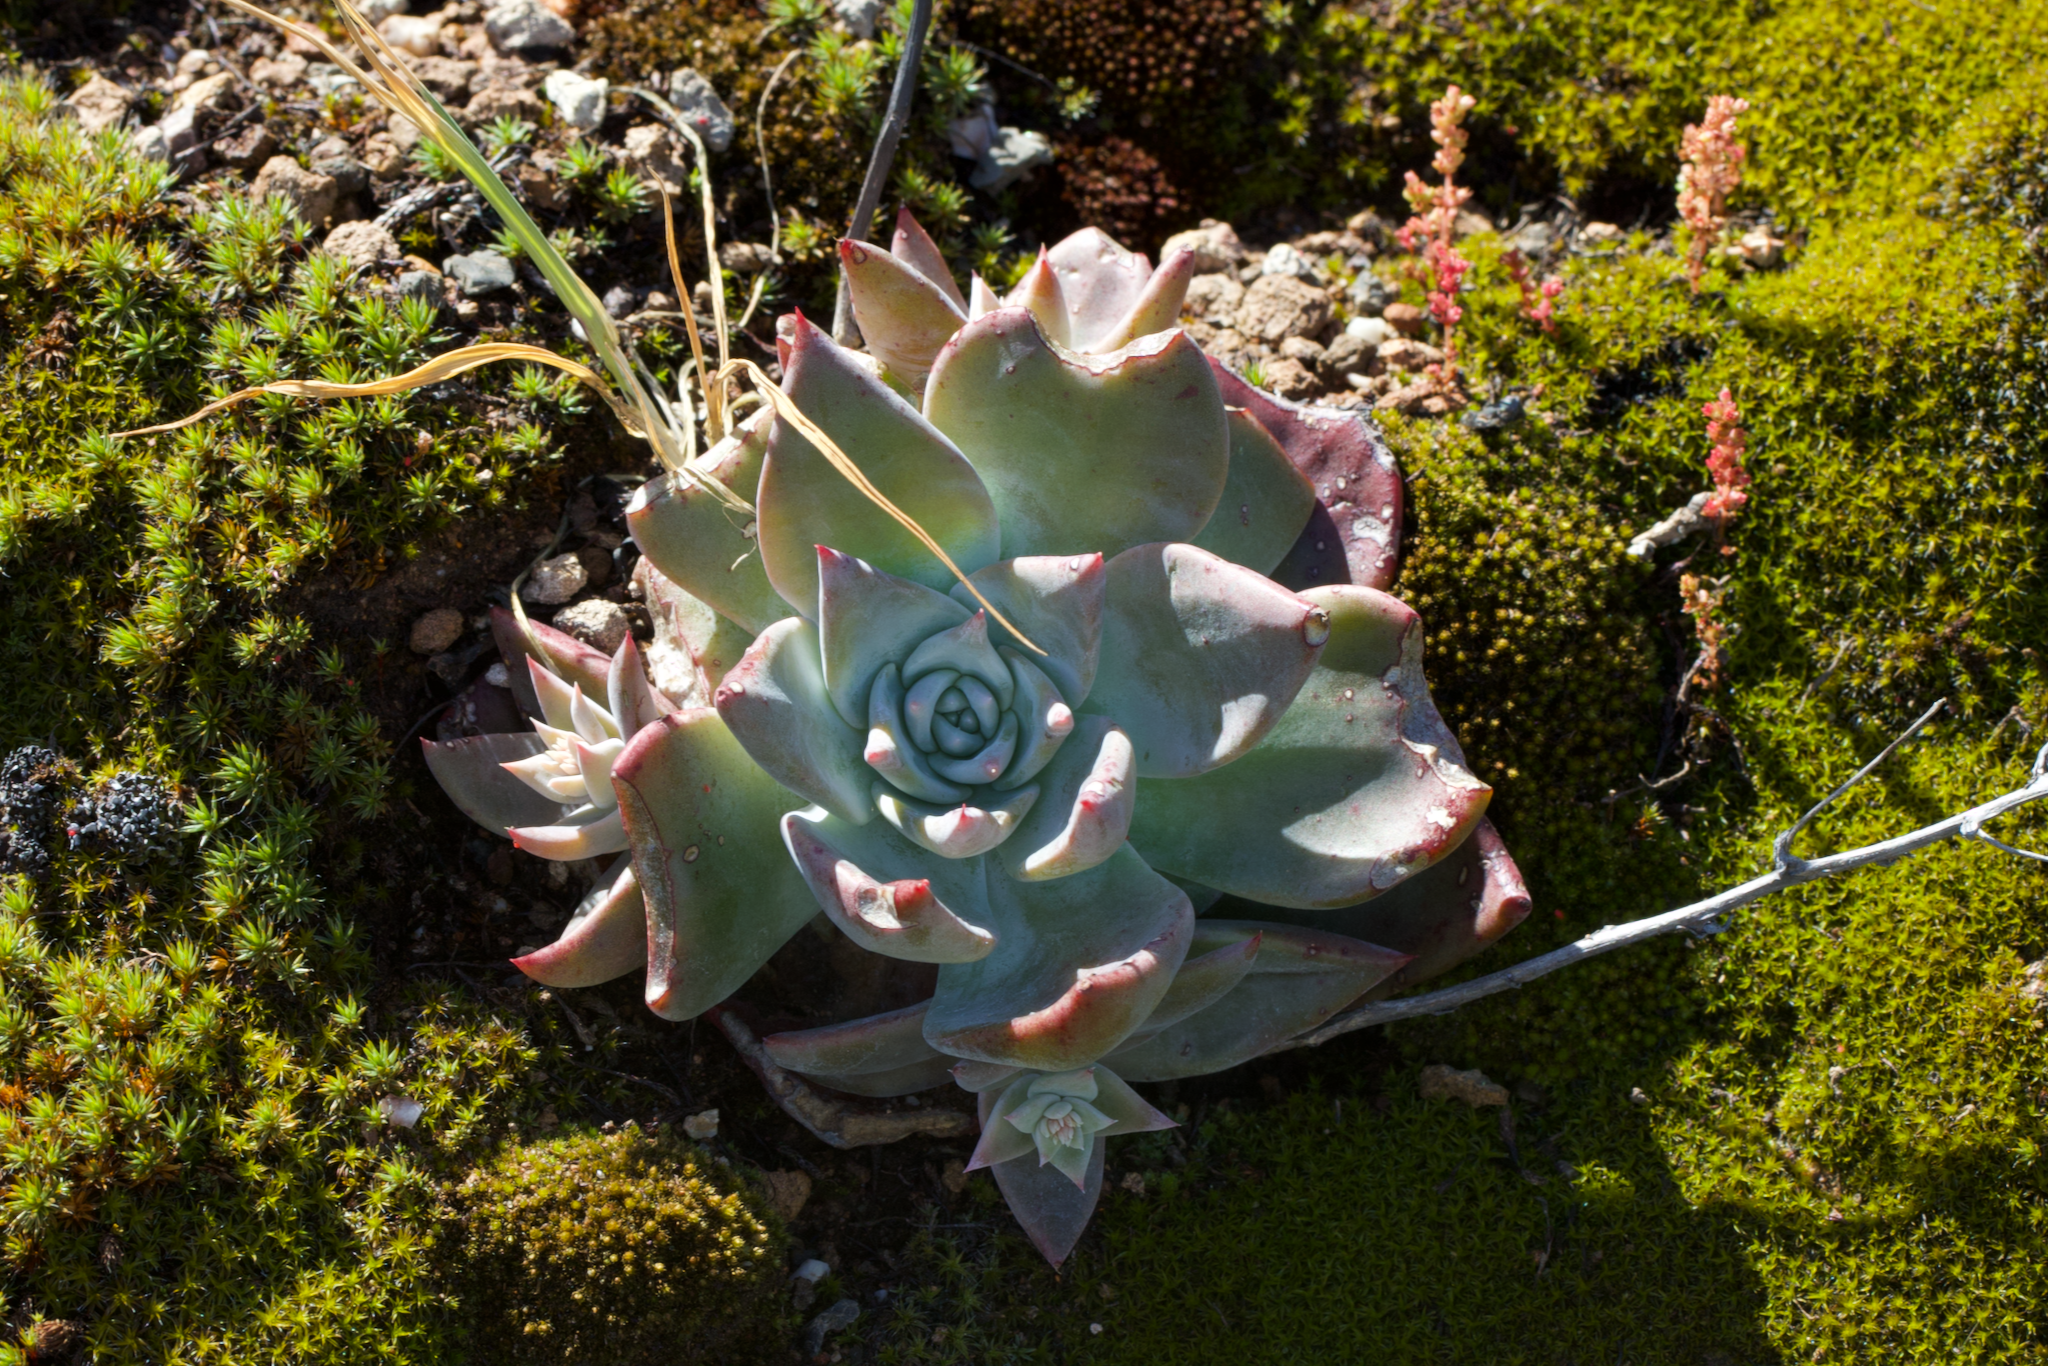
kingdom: Plantae
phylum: Tracheophyta
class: Magnoliopsida
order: Saxifragales
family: Crassulaceae
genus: Dudleya
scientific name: Dudleya cymosa
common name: Canyon dudleya
